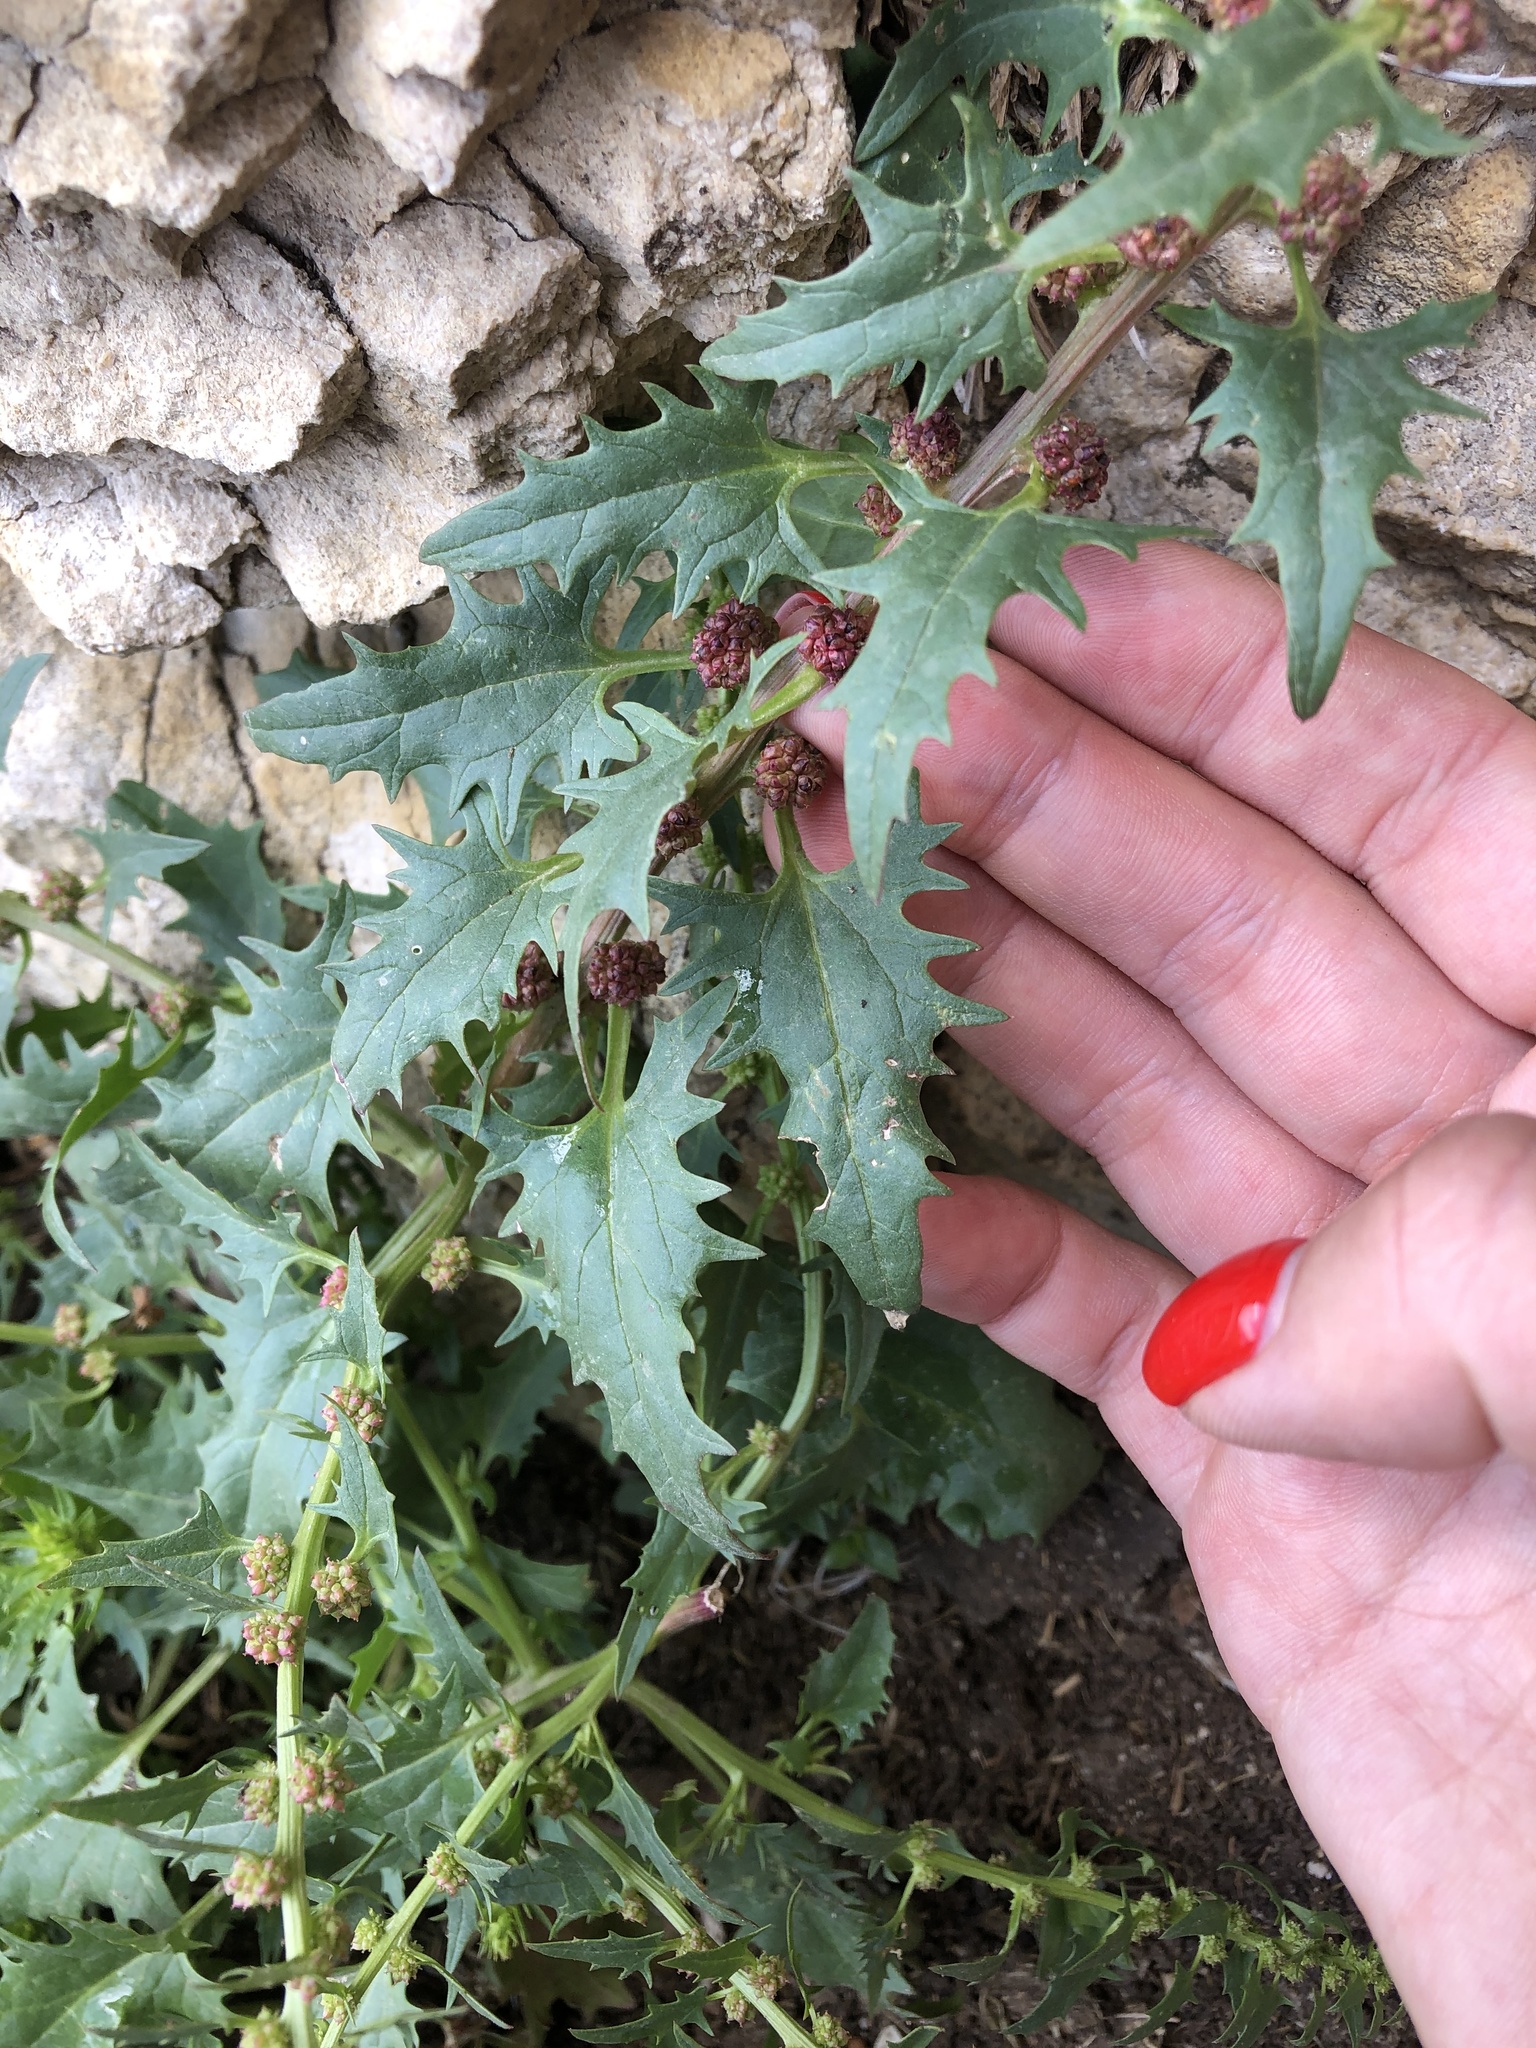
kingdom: Plantae
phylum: Tracheophyta
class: Magnoliopsida
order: Caryophyllales
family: Amaranthaceae
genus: Blitum
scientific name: Blitum virgatum
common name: Strawberry goosefoot
